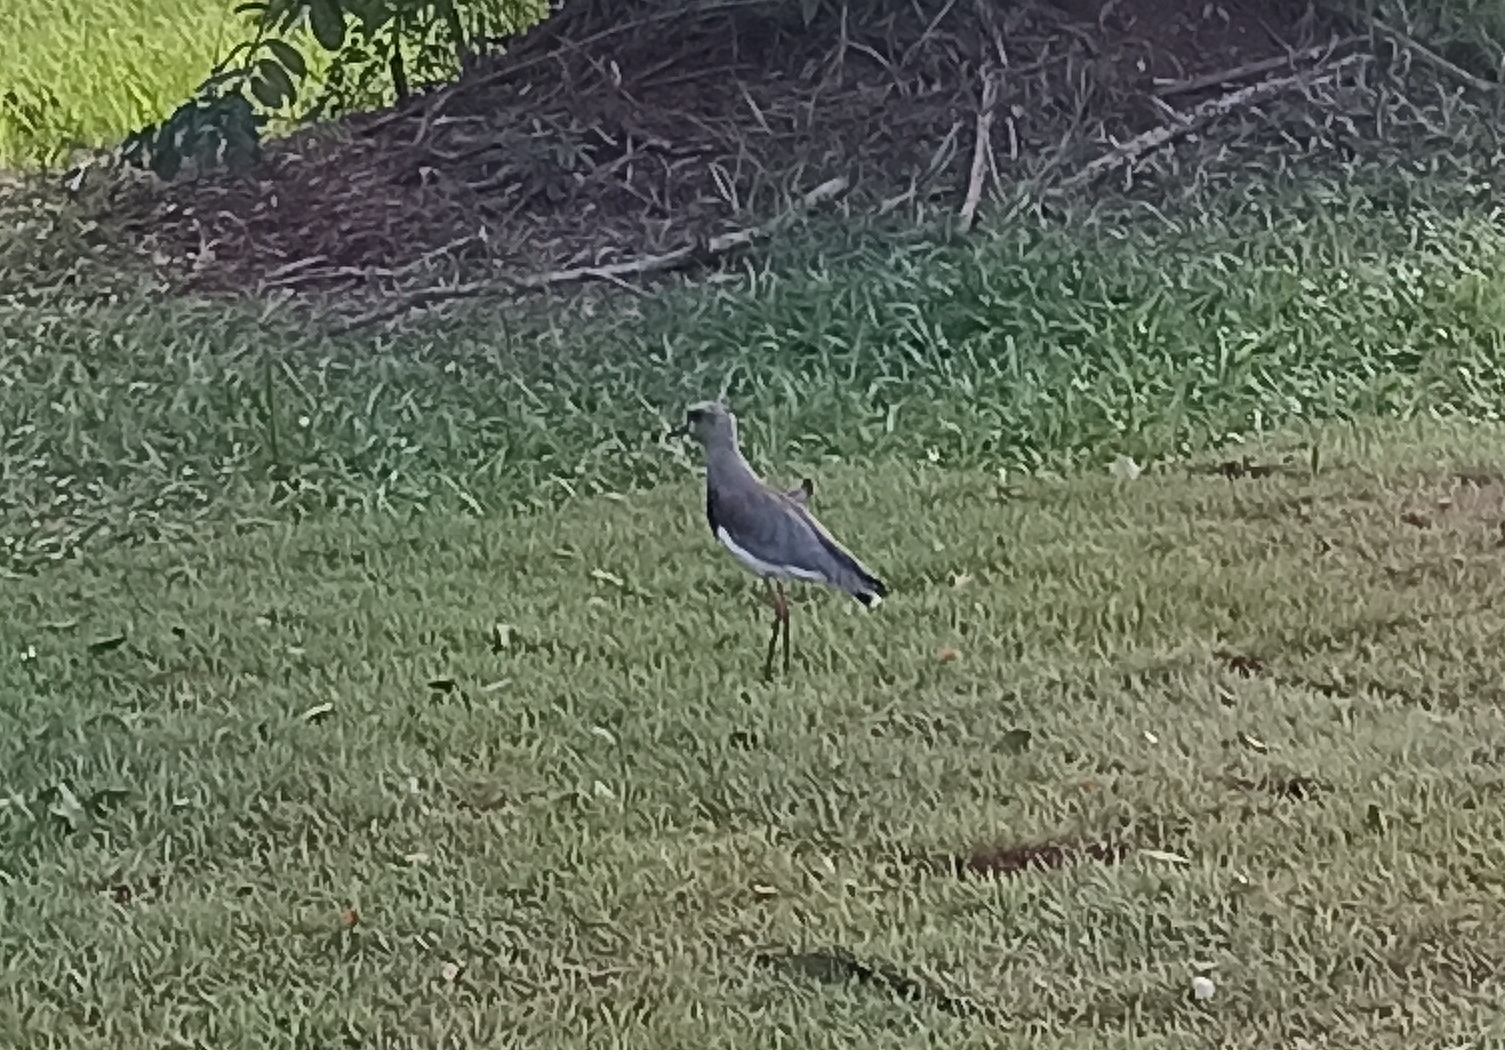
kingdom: Animalia
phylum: Chordata
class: Aves
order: Charadriiformes
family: Charadriidae
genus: Vanellus
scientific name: Vanellus chilensis
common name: Southern lapwing
